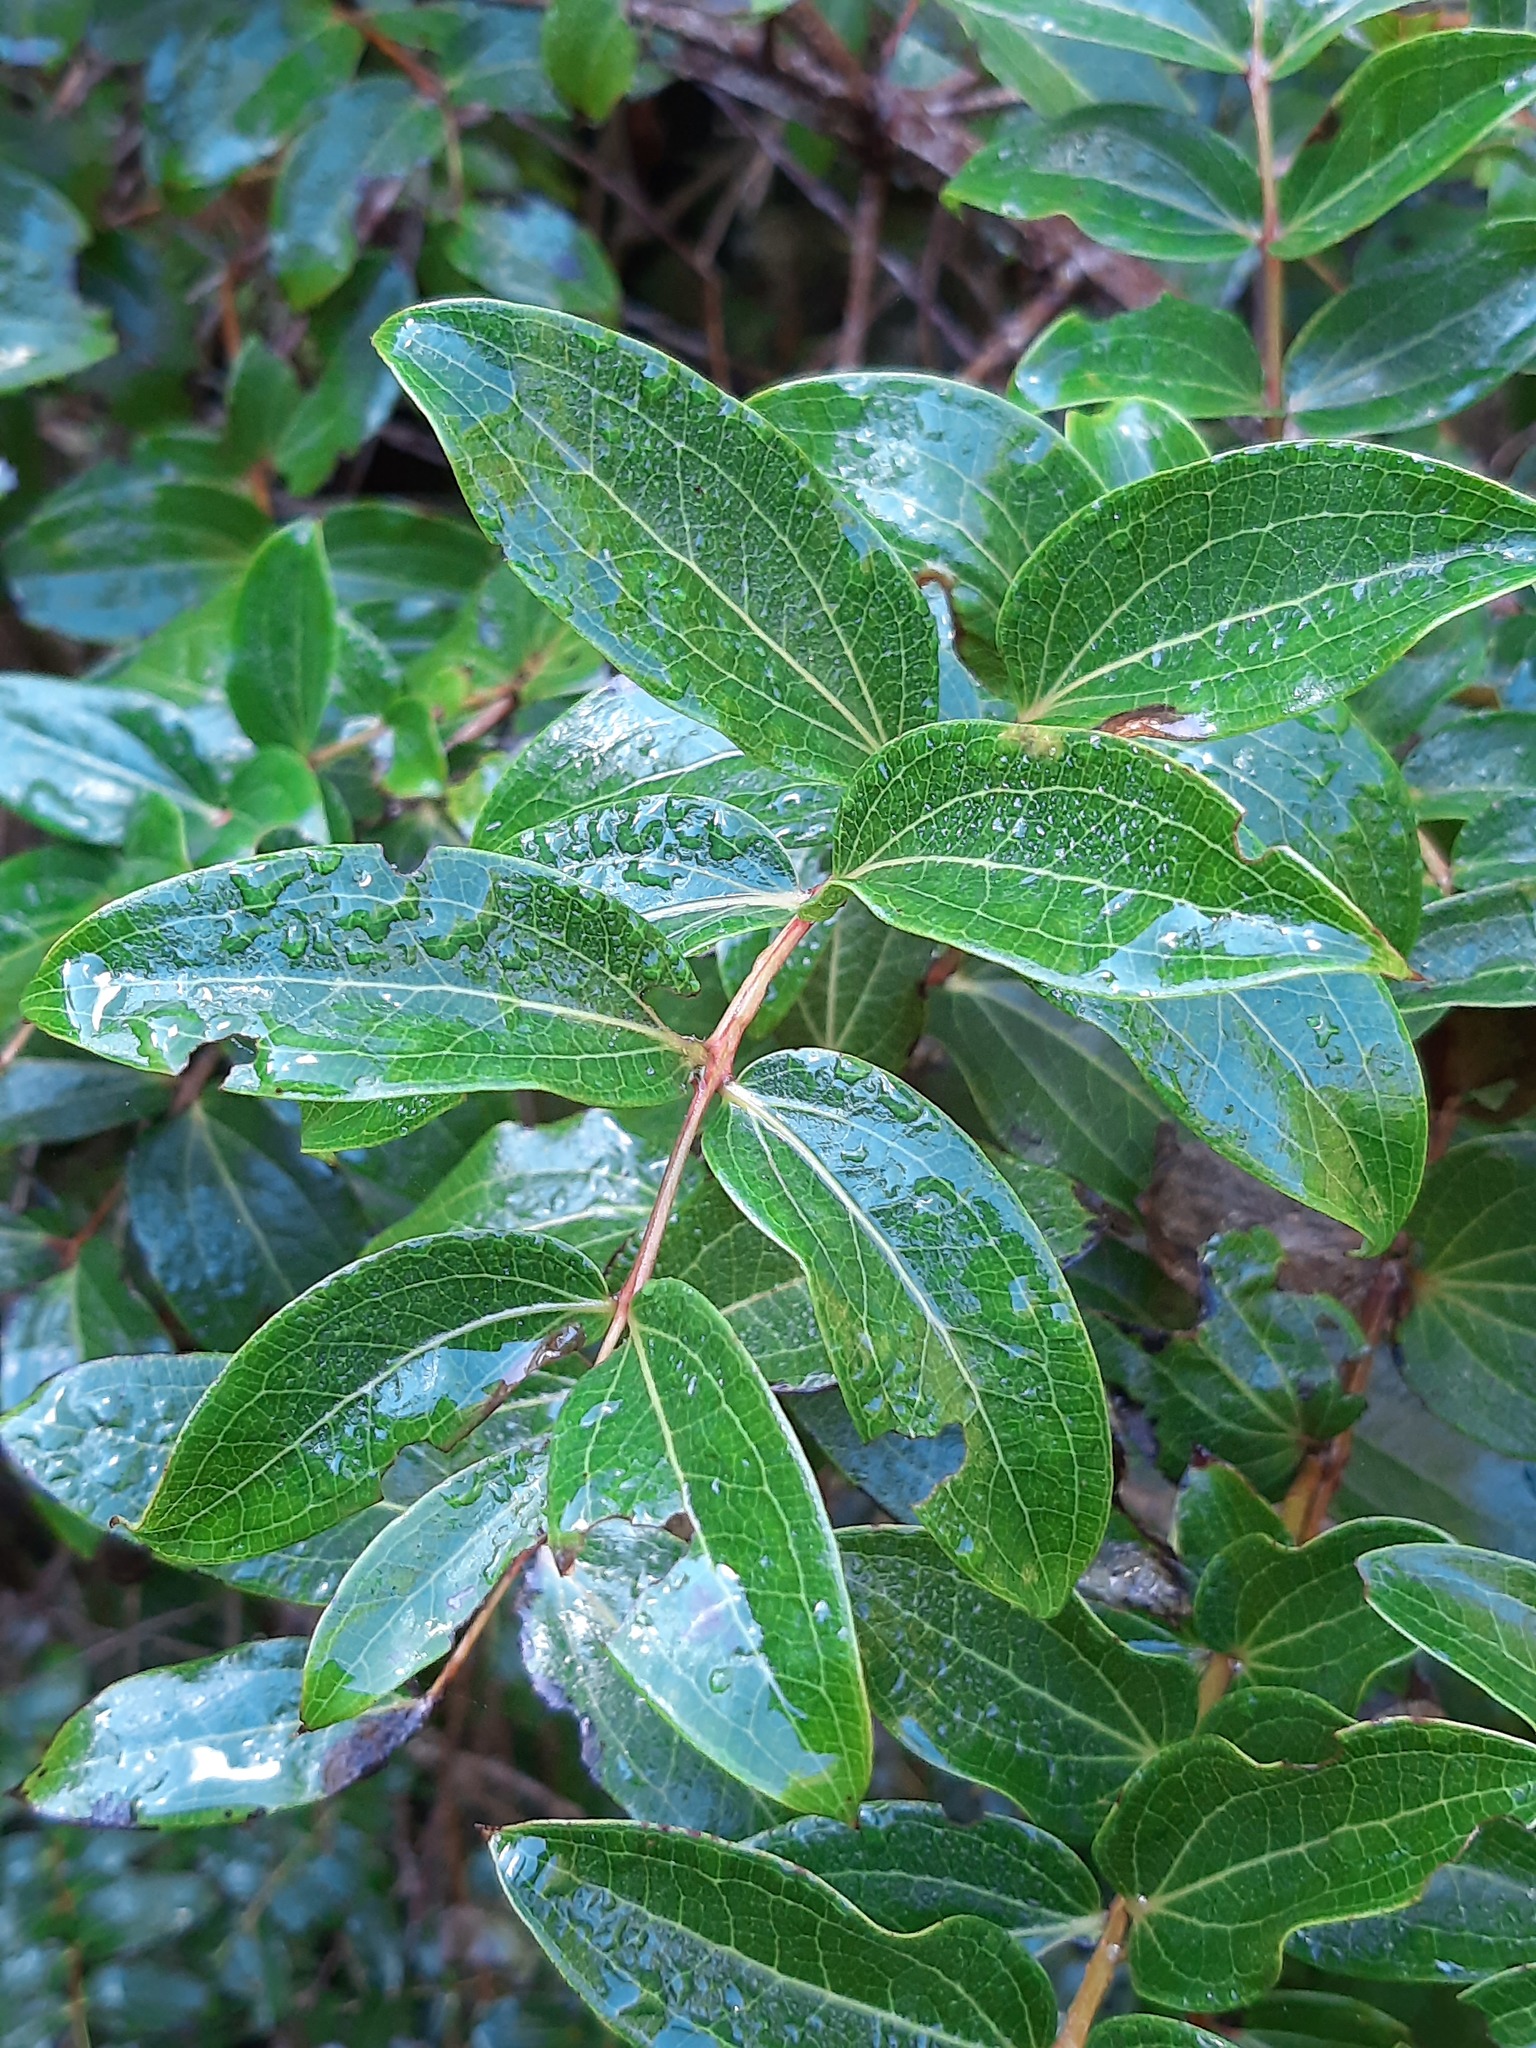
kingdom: Plantae
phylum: Tracheophyta
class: Magnoliopsida
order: Cucurbitales
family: Coriariaceae
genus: Coriaria
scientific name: Coriaria arborea
